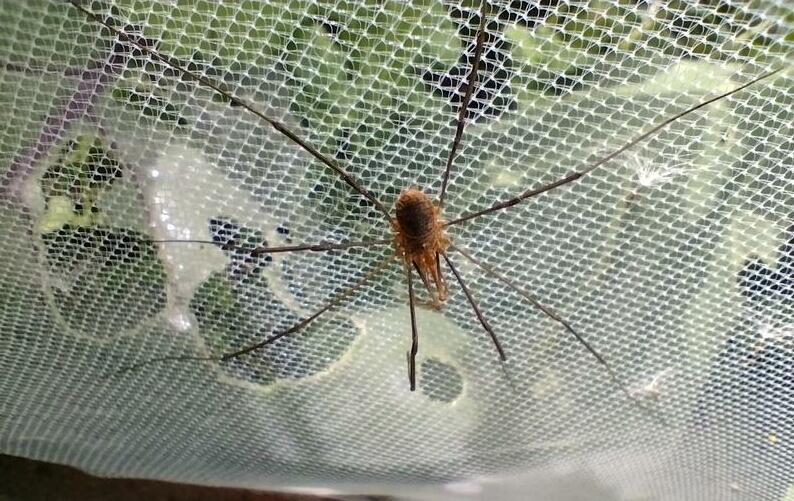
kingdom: Animalia
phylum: Arthropoda
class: Arachnida
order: Opiliones
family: Phalangiidae
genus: Phalangium
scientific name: Phalangium opilio
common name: Daddy longleg
